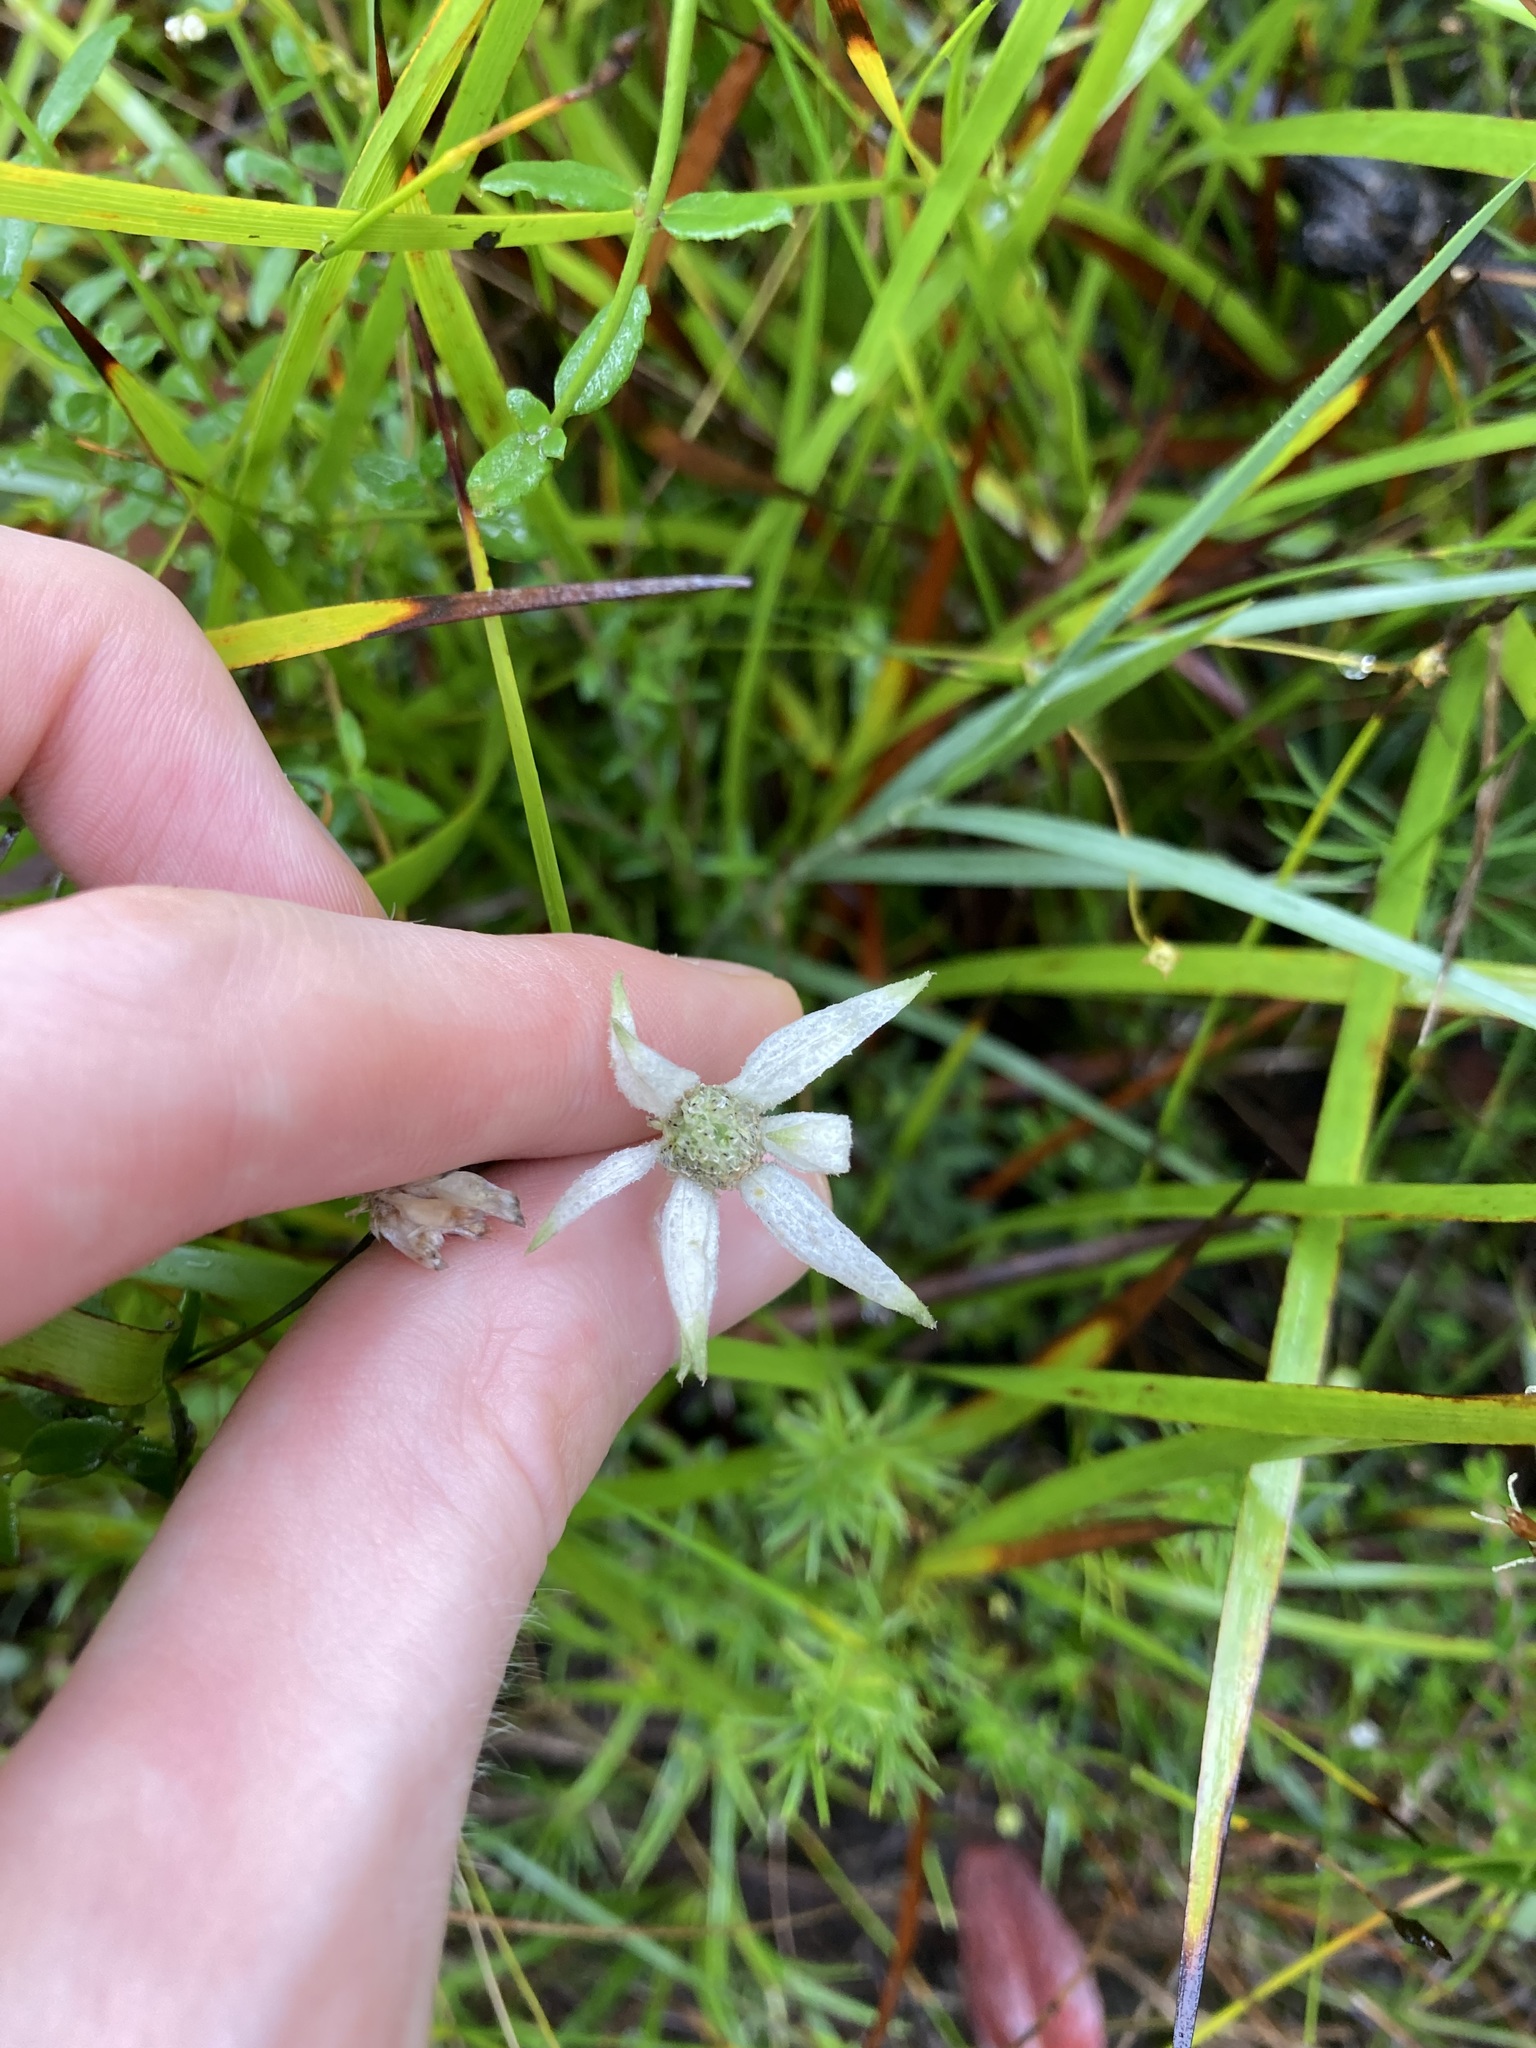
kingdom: Plantae
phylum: Tracheophyta
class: Magnoliopsida
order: Apiales
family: Apiaceae
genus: Actinotus
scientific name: Actinotus helianthi
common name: Flannel-flower
